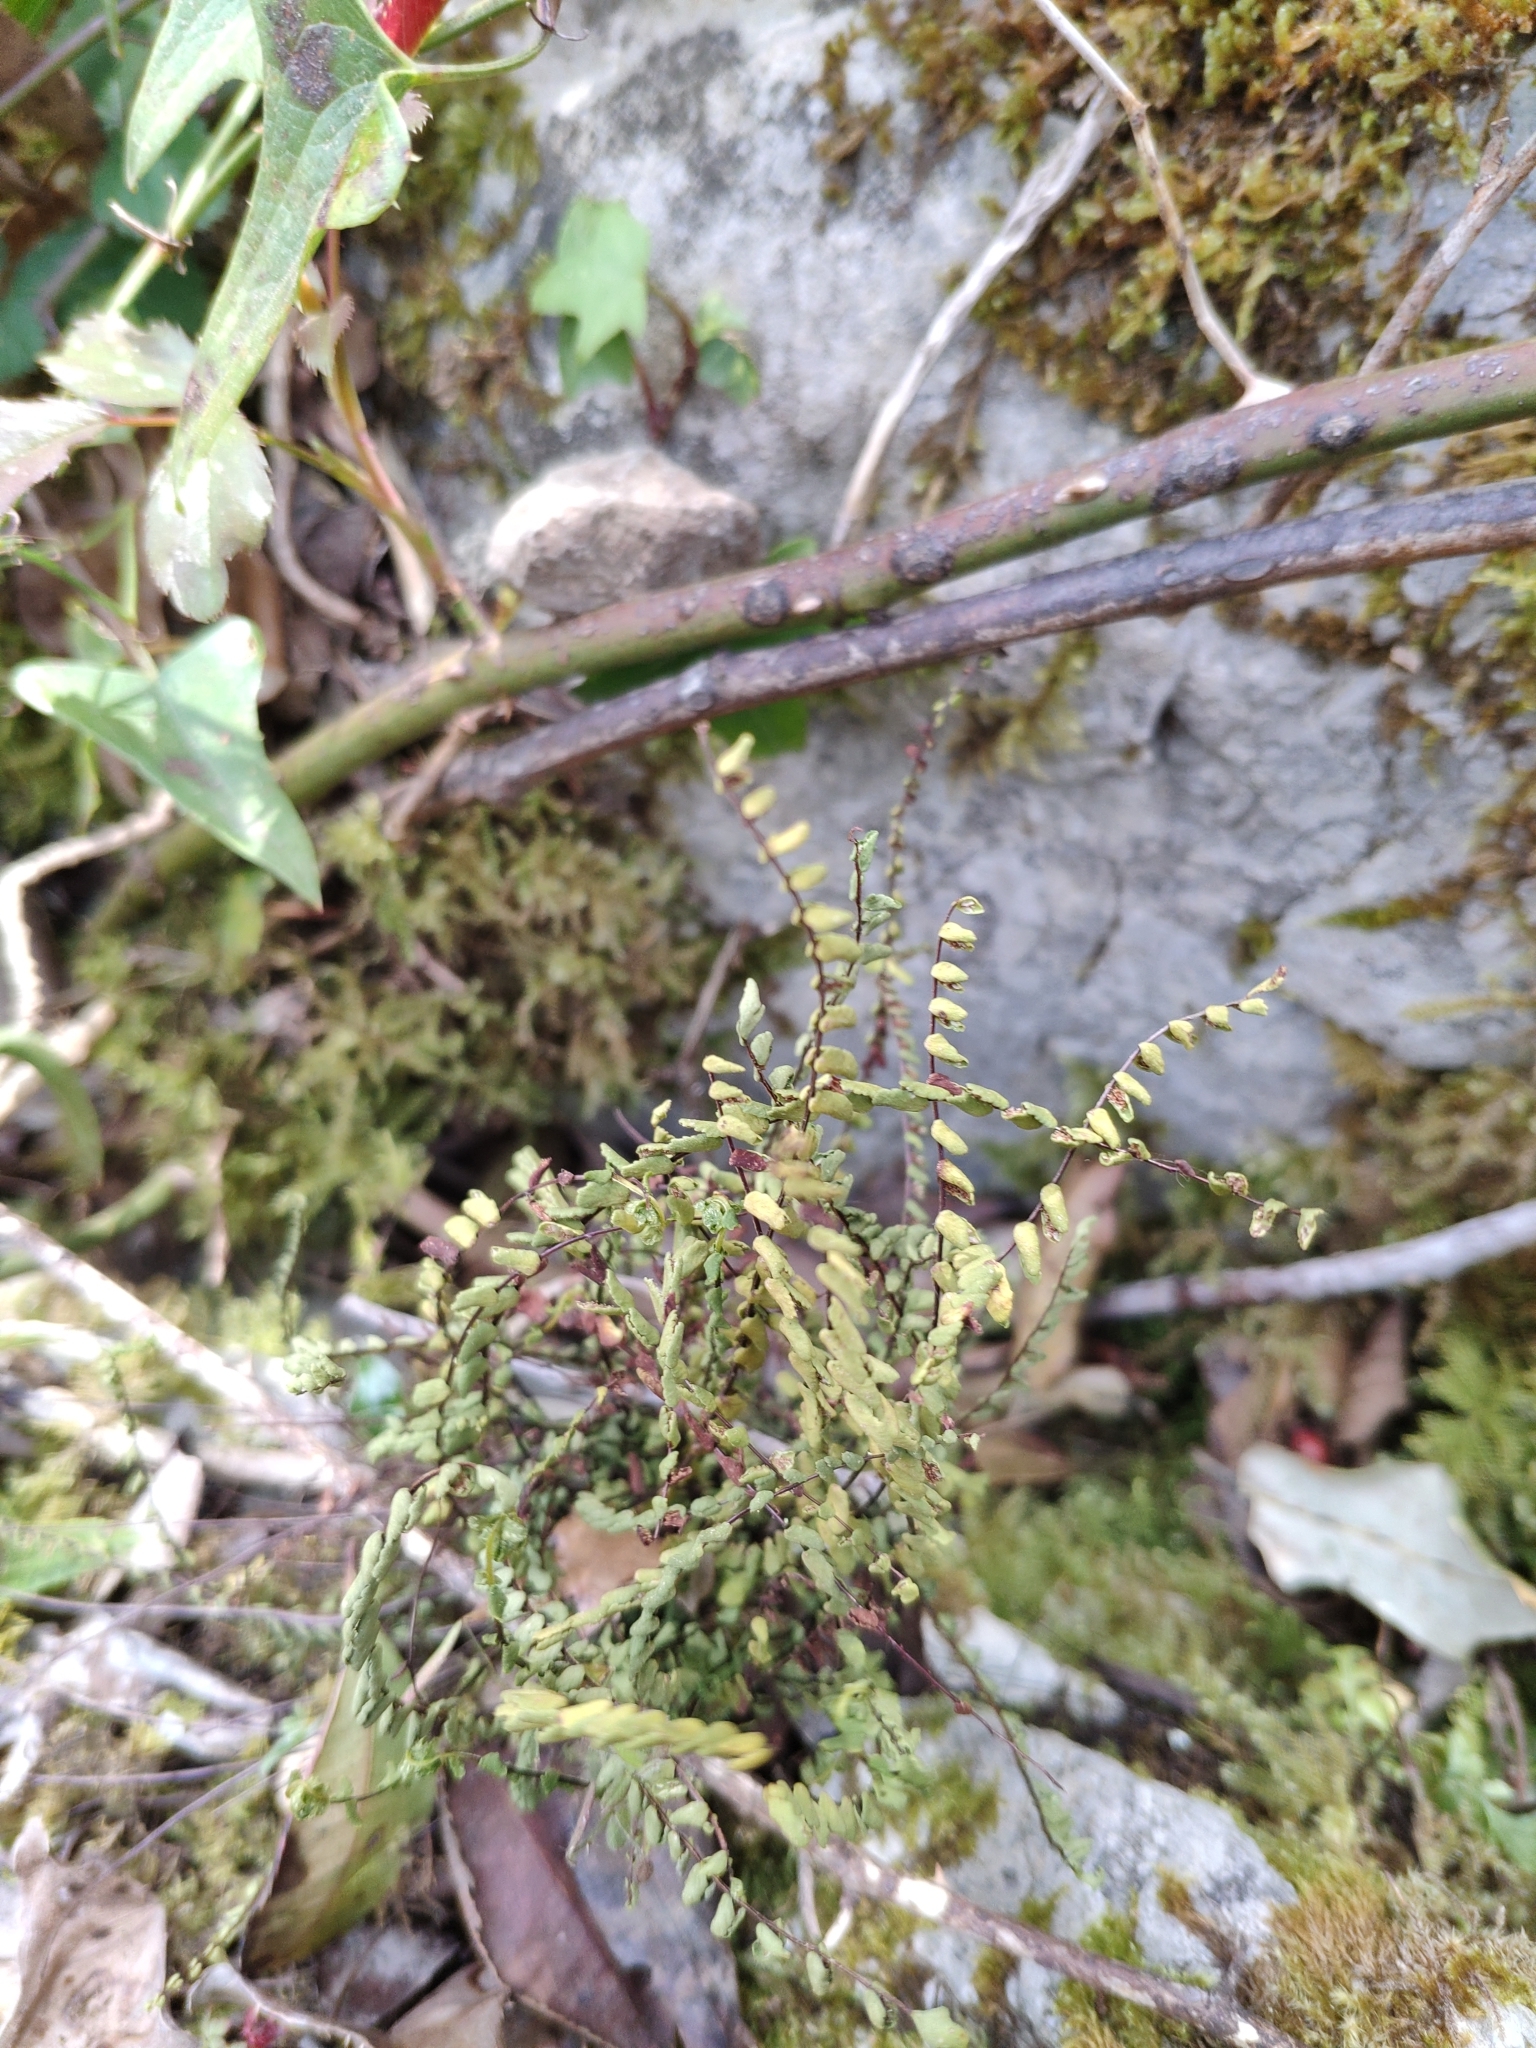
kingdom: Plantae
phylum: Tracheophyta
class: Polypodiopsida
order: Polypodiales
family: Aspleniaceae
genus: Asplenium
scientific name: Asplenium trichomanes
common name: Maidenhair spleenwort
